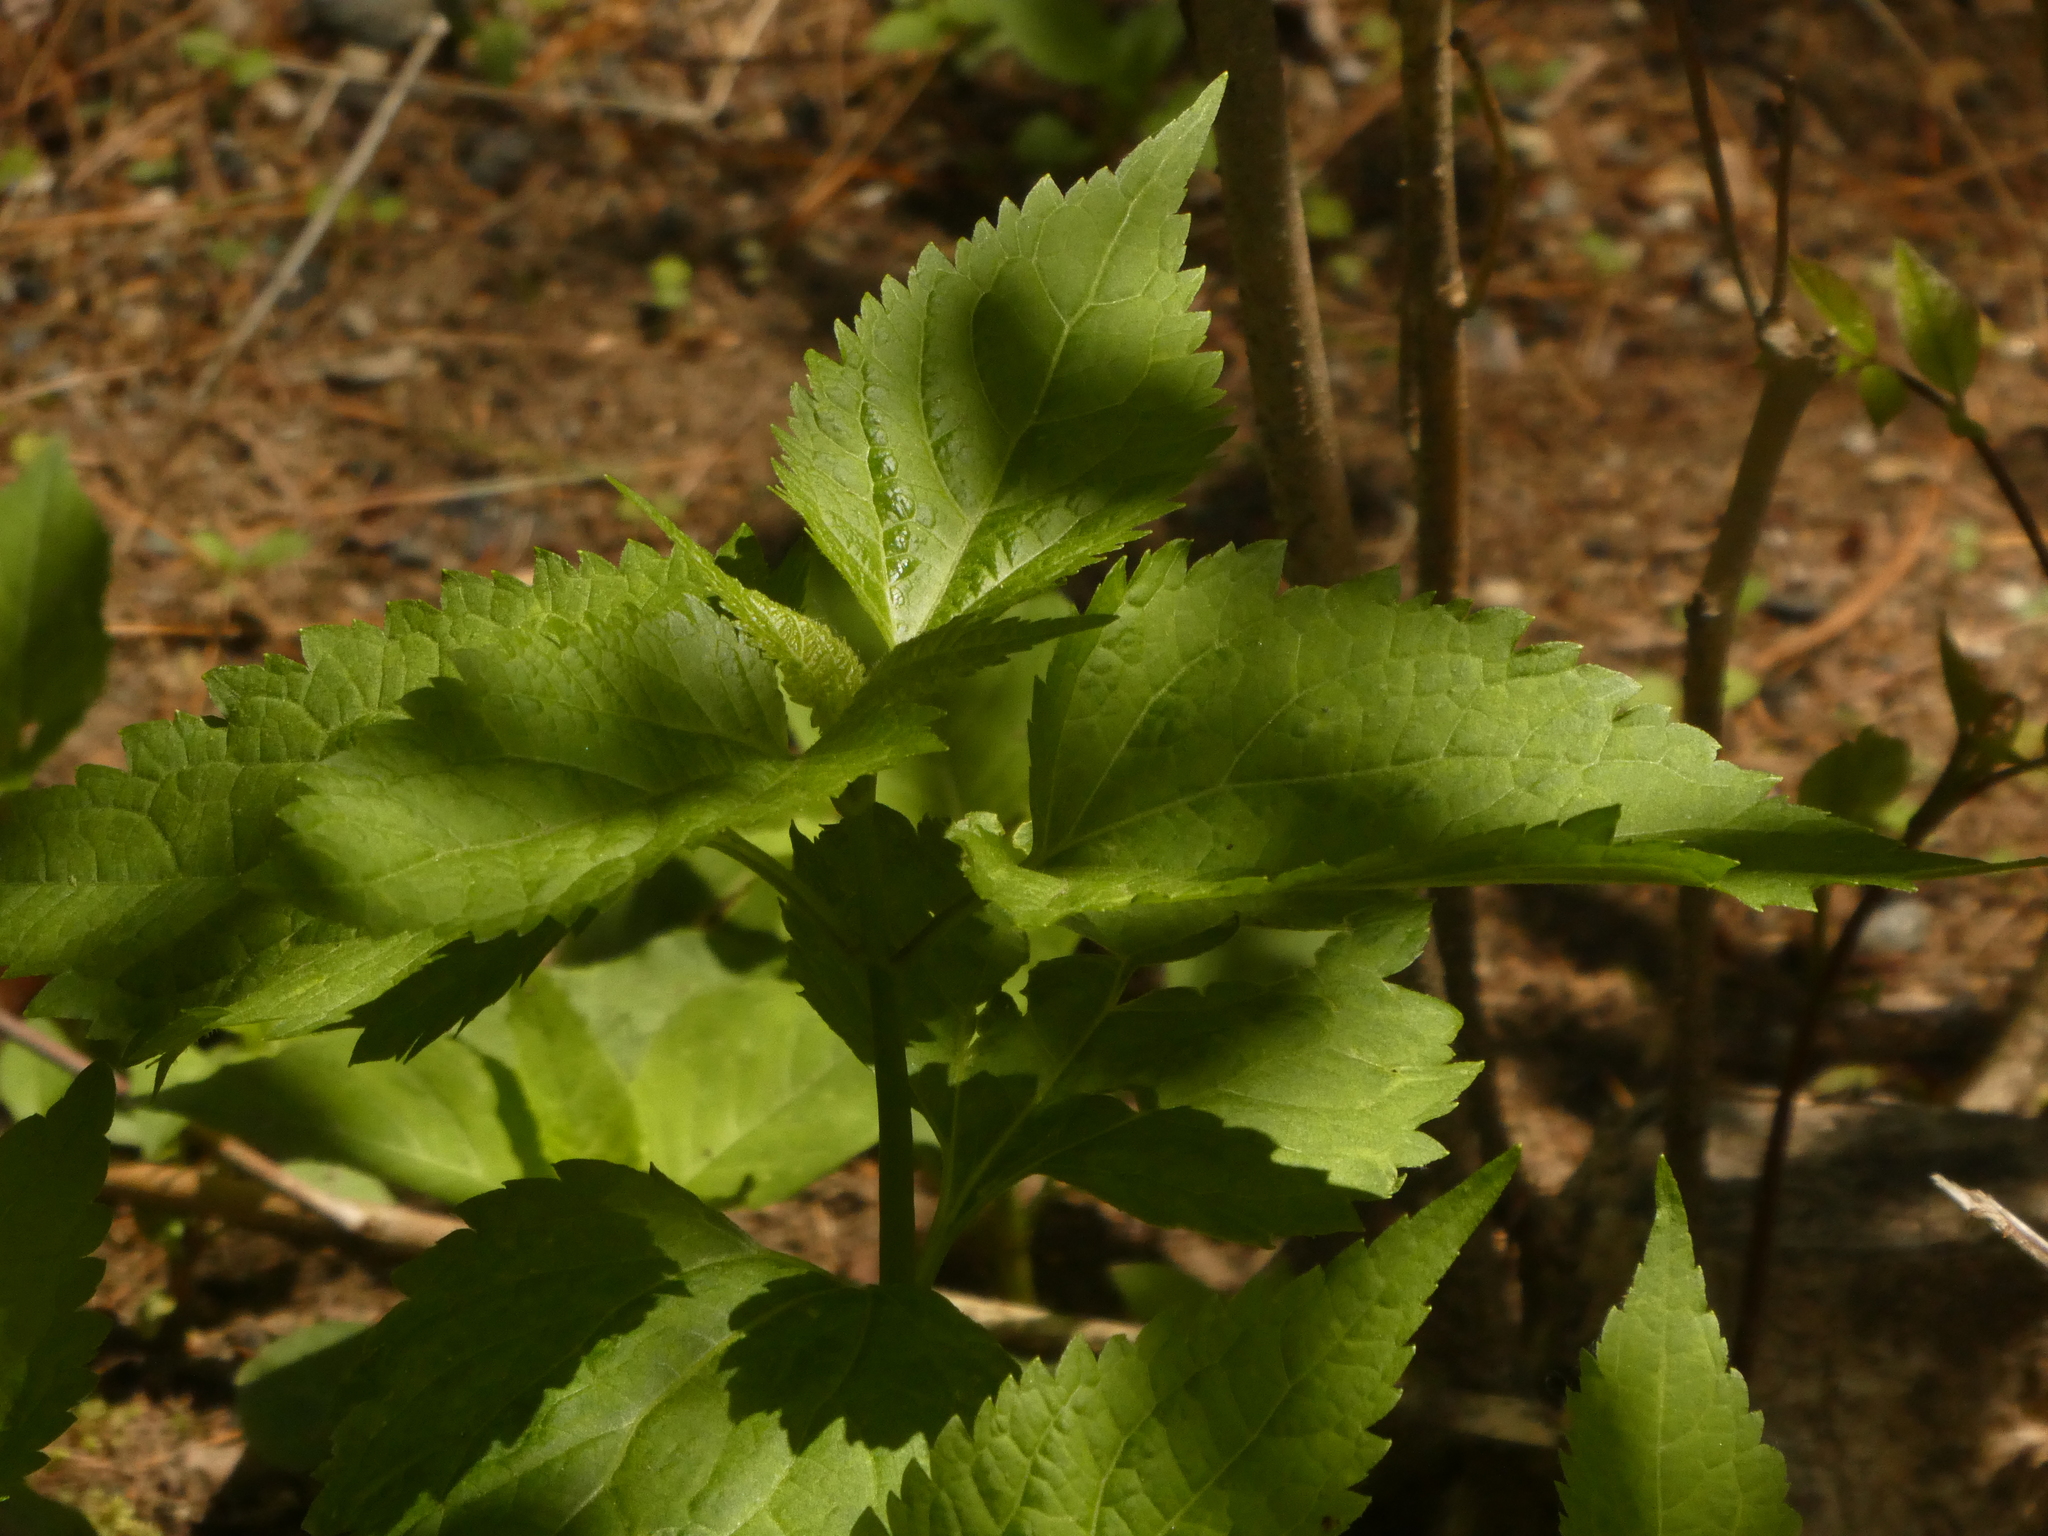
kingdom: Plantae
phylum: Tracheophyta
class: Magnoliopsida
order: Asterales
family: Asteraceae
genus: Ageratina
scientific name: Ageratina altissima
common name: White snakeroot
